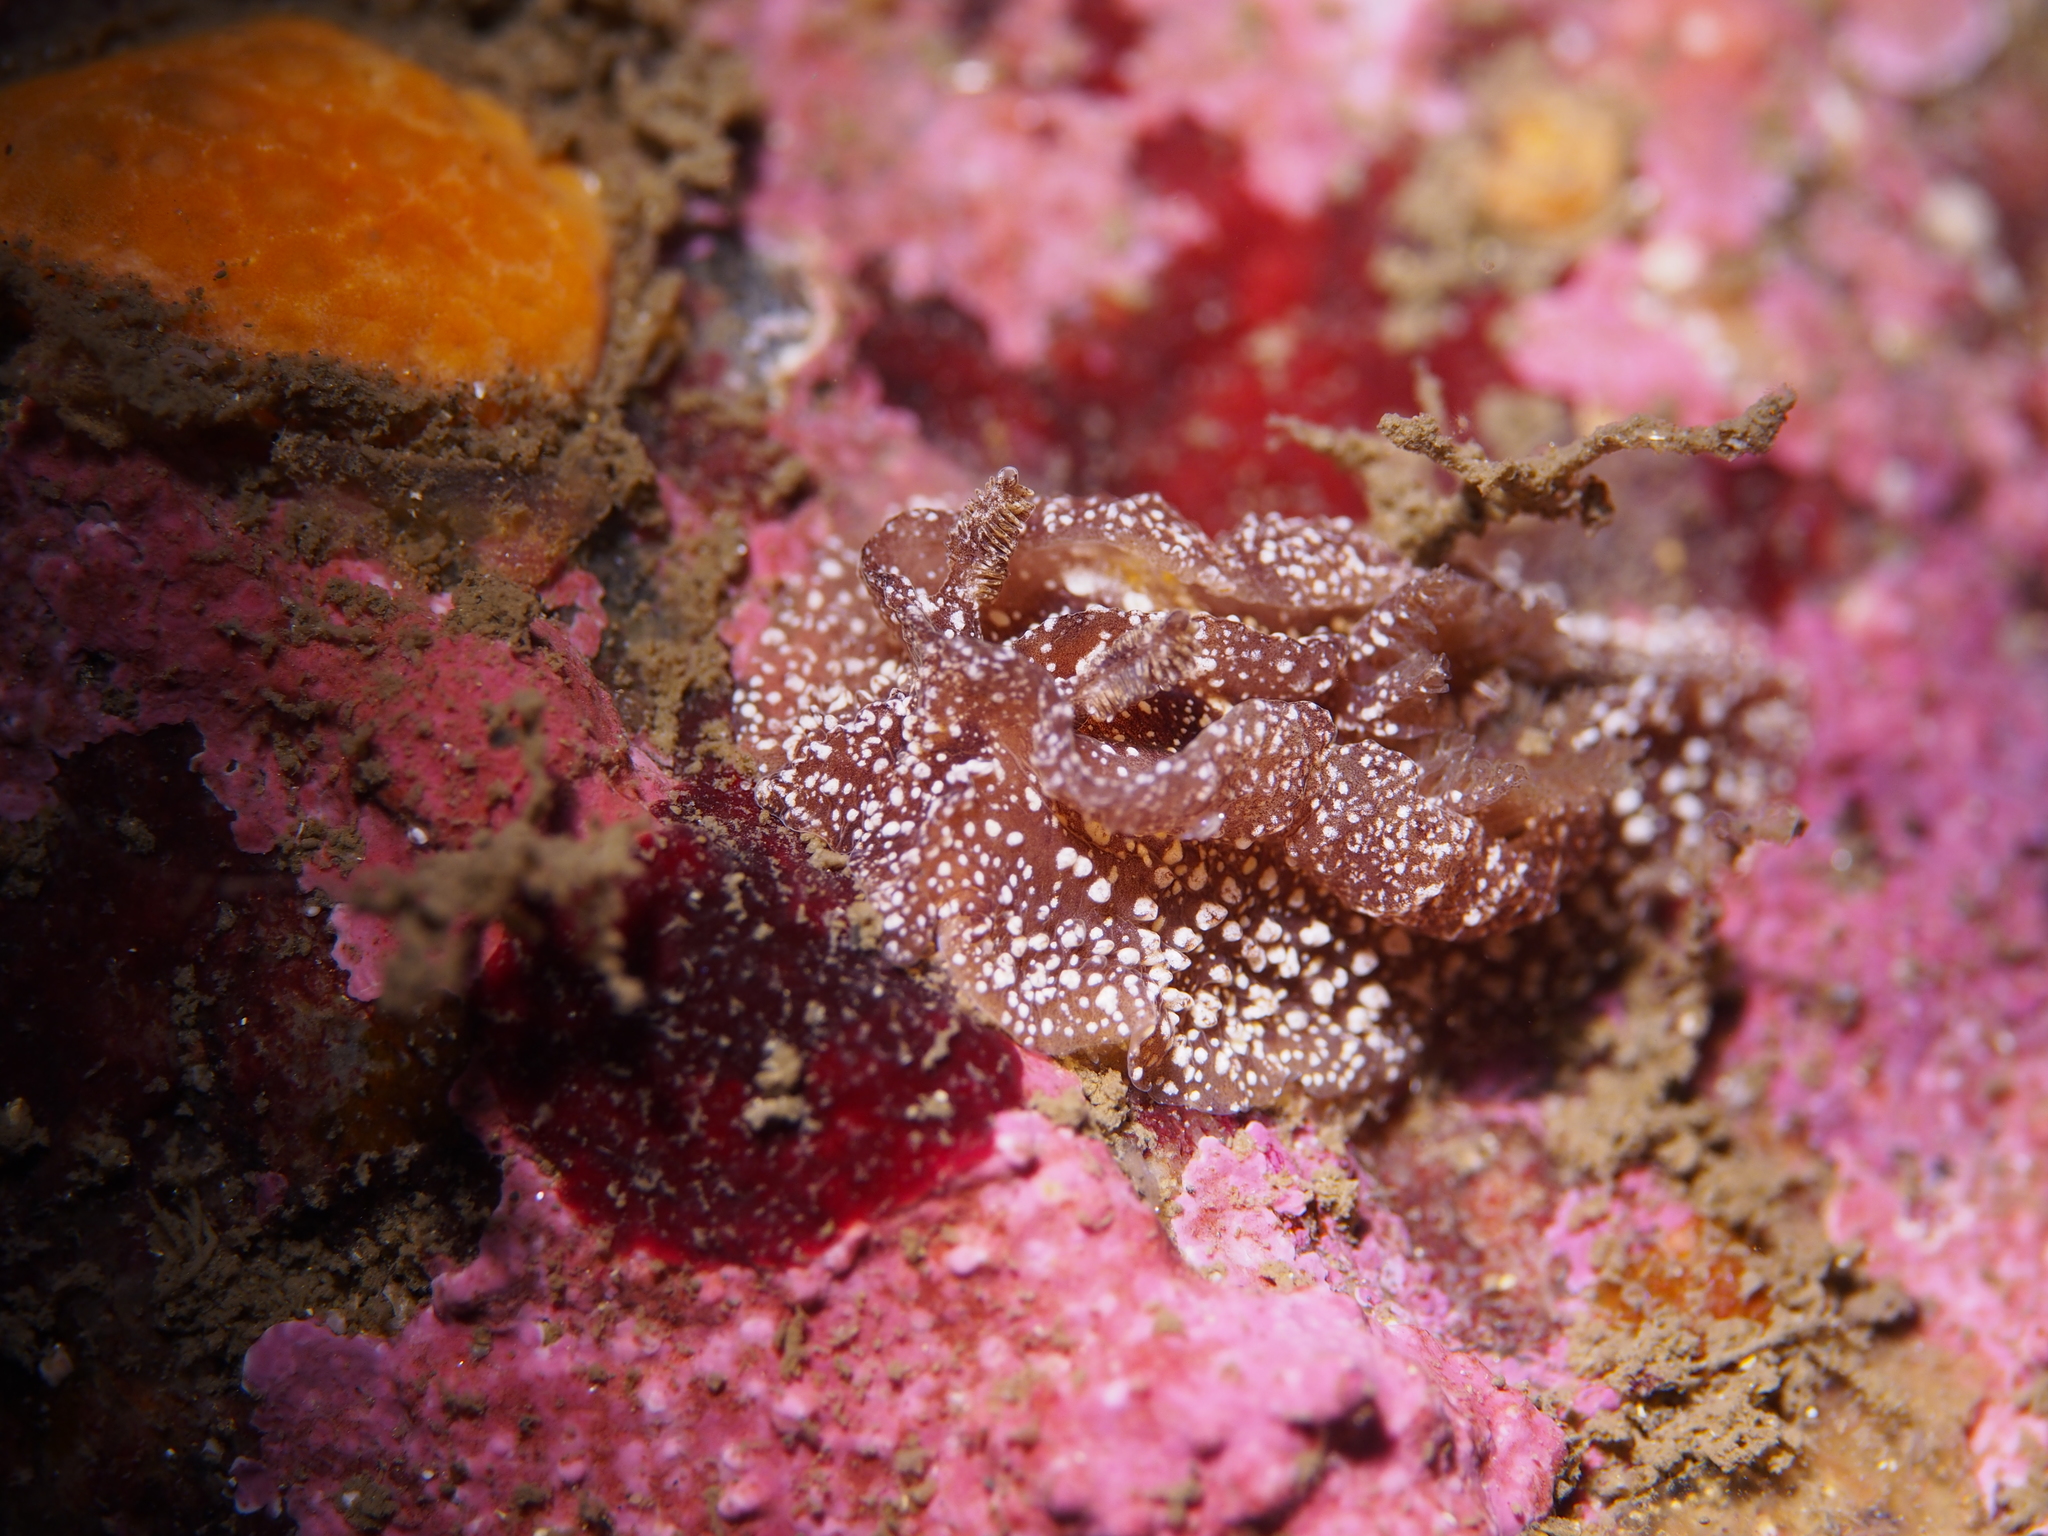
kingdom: Animalia
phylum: Mollusca
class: Gastropoda
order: Nudibranchia
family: Goniodorididae
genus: Pelagella
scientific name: Pelagella castanea
